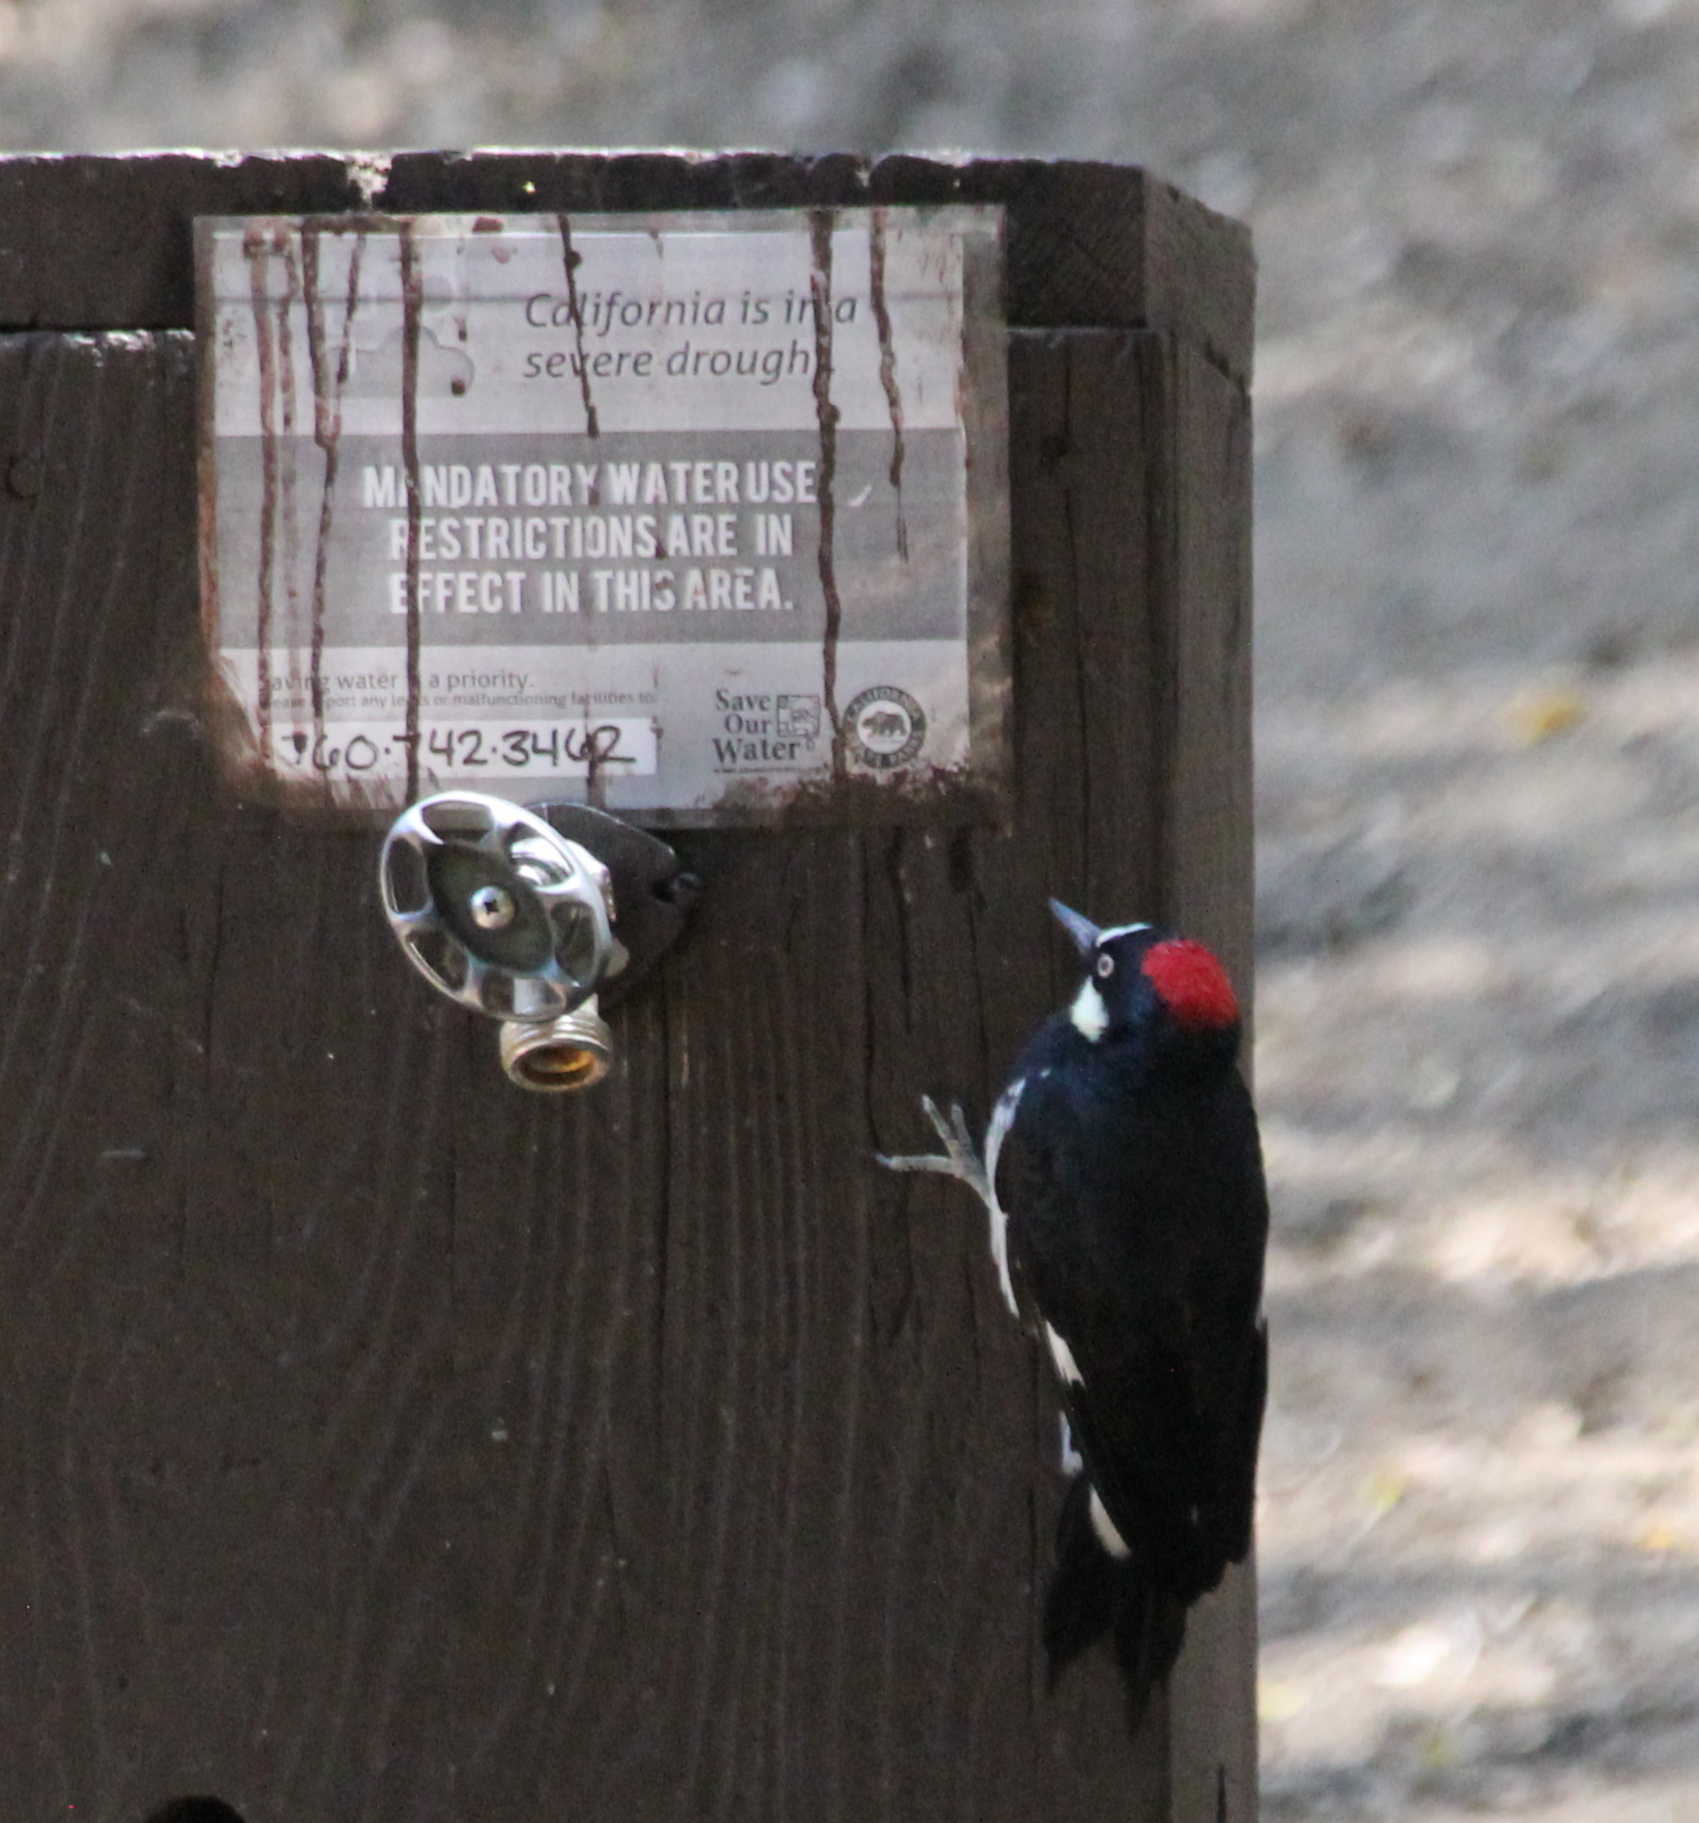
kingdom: Animalia
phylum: Chordata
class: Aves
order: Piciformes
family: Picidae
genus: Melanerpes
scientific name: Melanerpes formicivorus
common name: Acorn woodpecker
